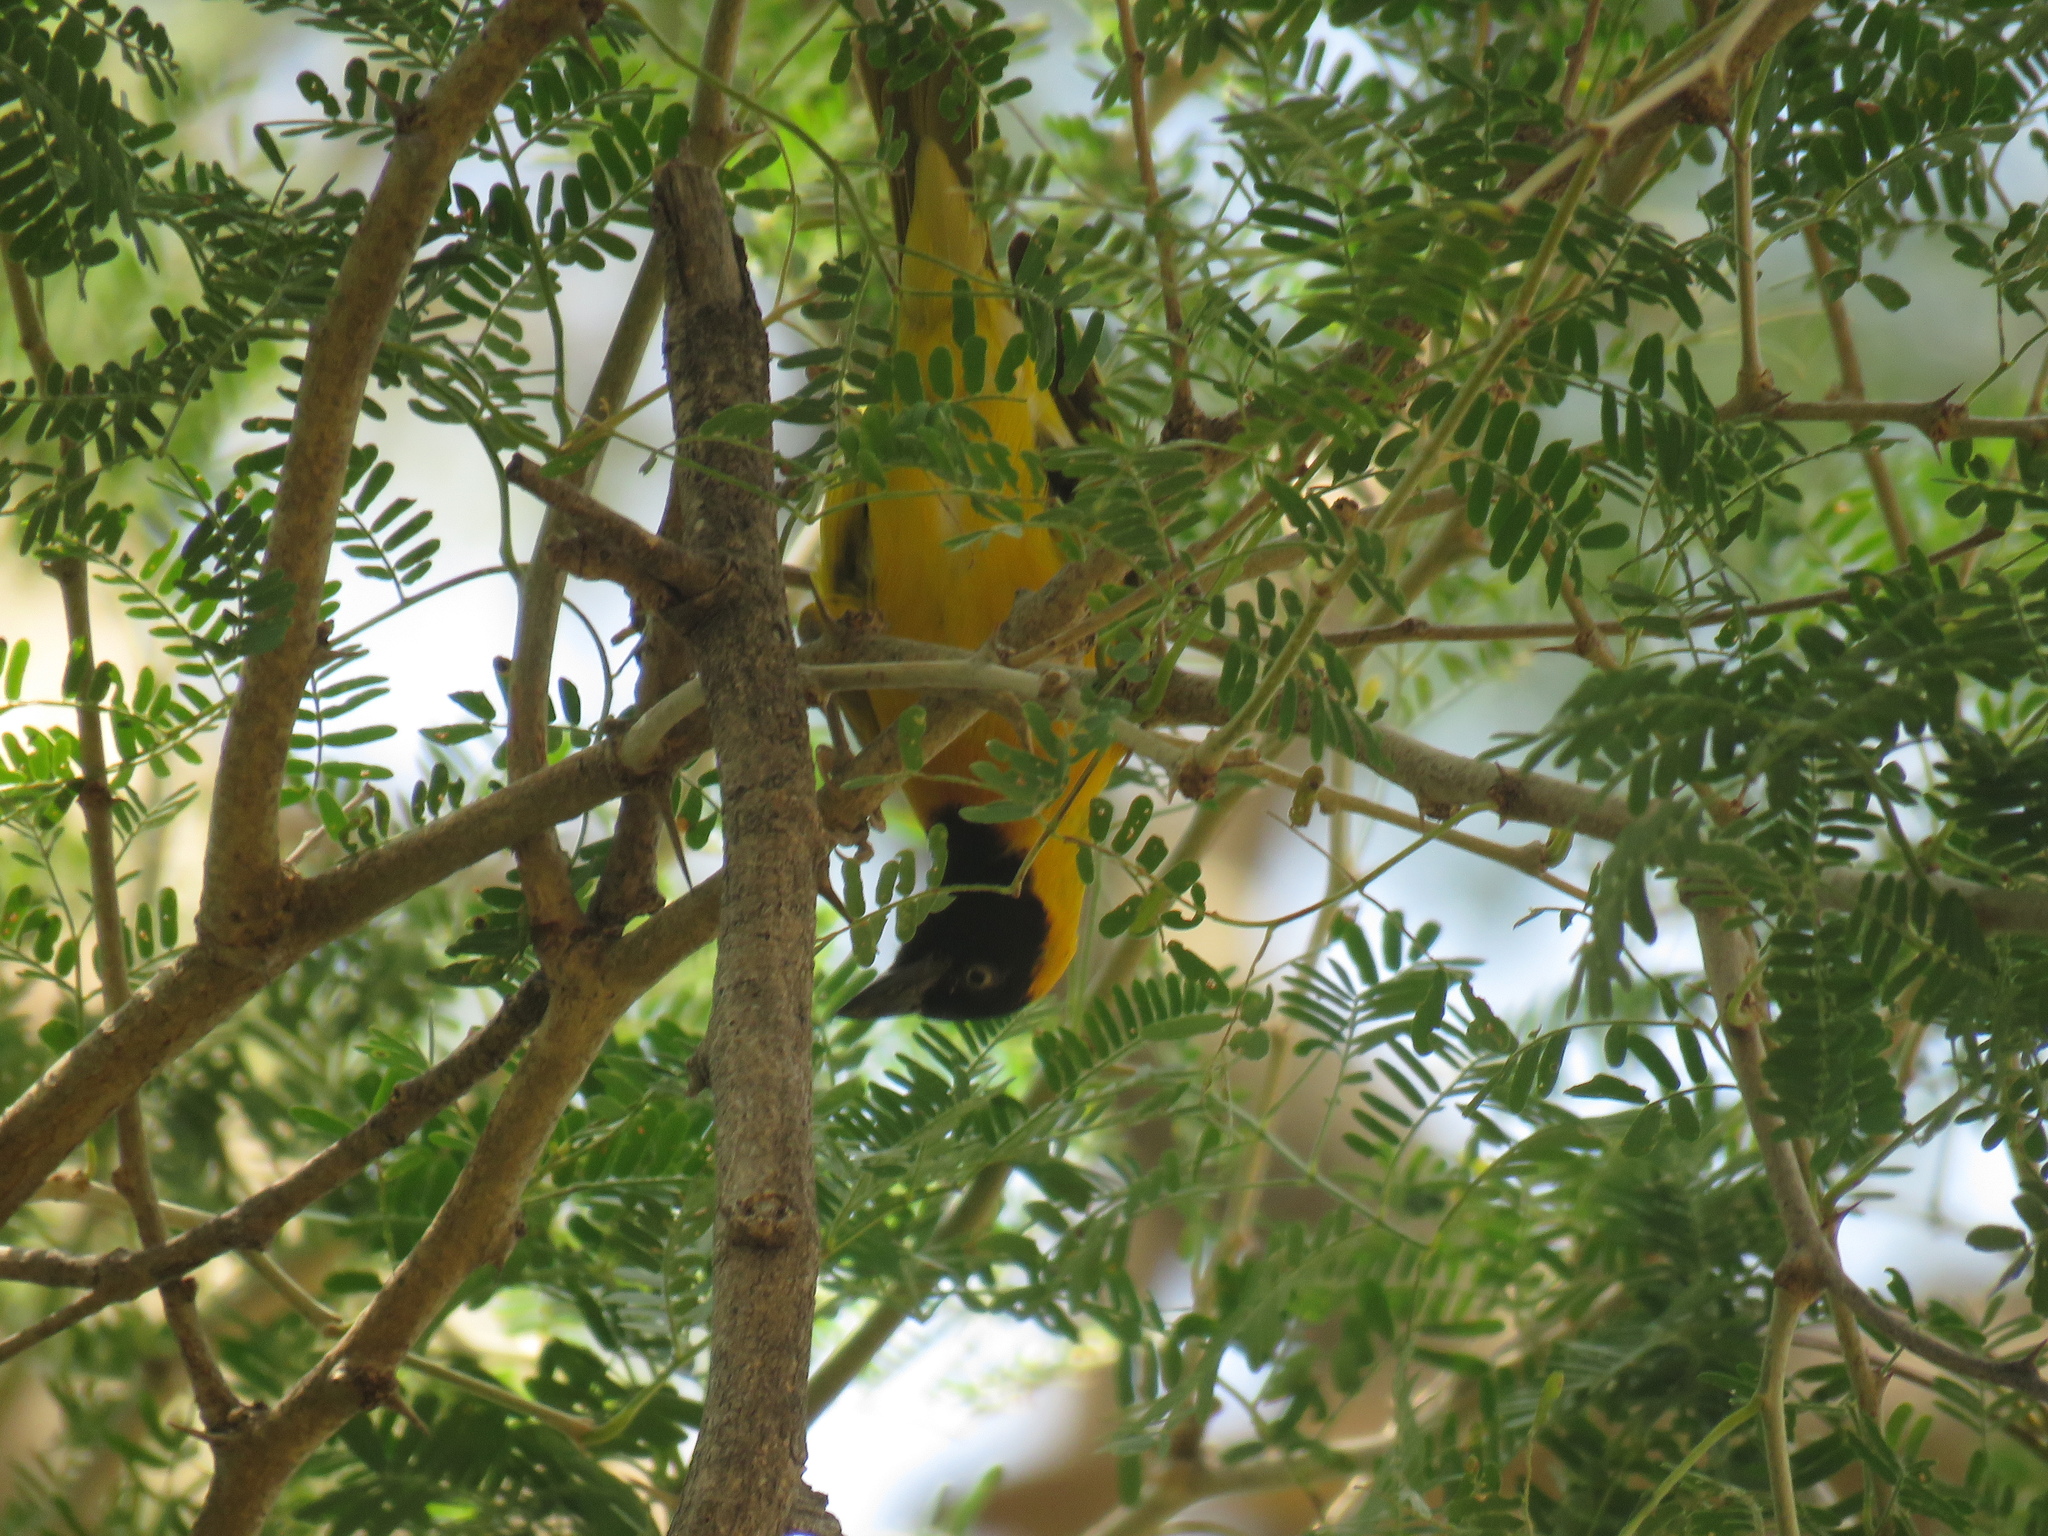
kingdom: Animalia
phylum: Chordata
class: Aves
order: Passeriformes
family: Ploceidae
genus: Ploceus
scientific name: Ploceus intermedius
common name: Lesser masked weaver
